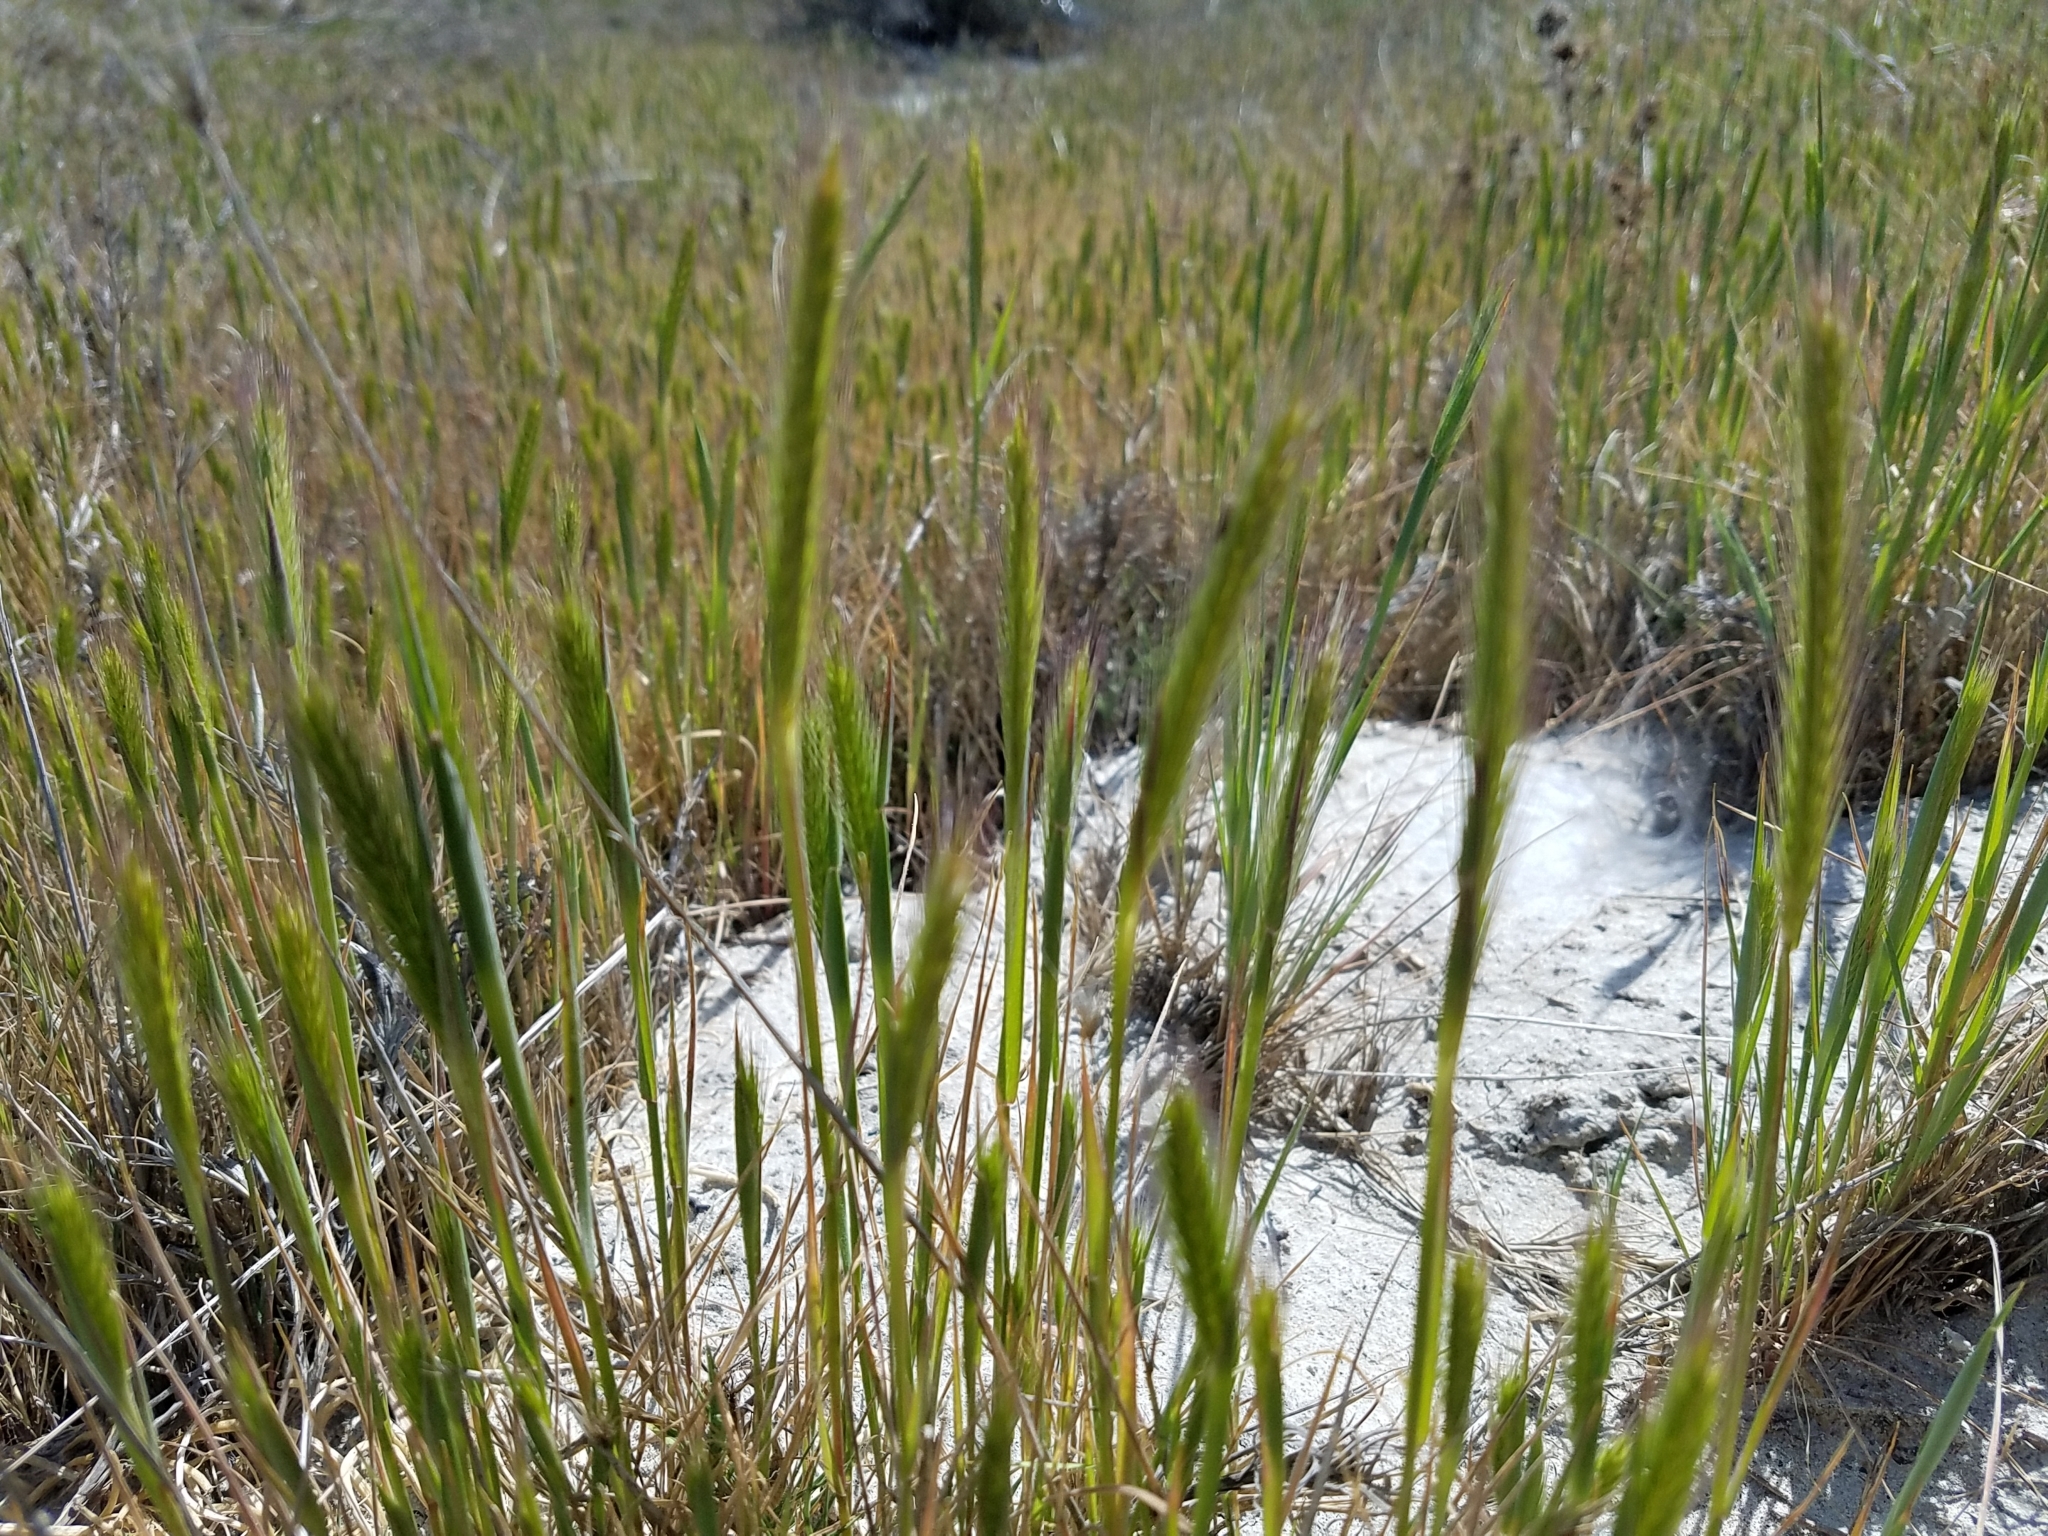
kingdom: Plantae
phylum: Tracheophyta
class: Liliopsida
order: Poales
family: Poaceae
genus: Hordeum
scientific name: Hordeum depressum
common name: Low barley
